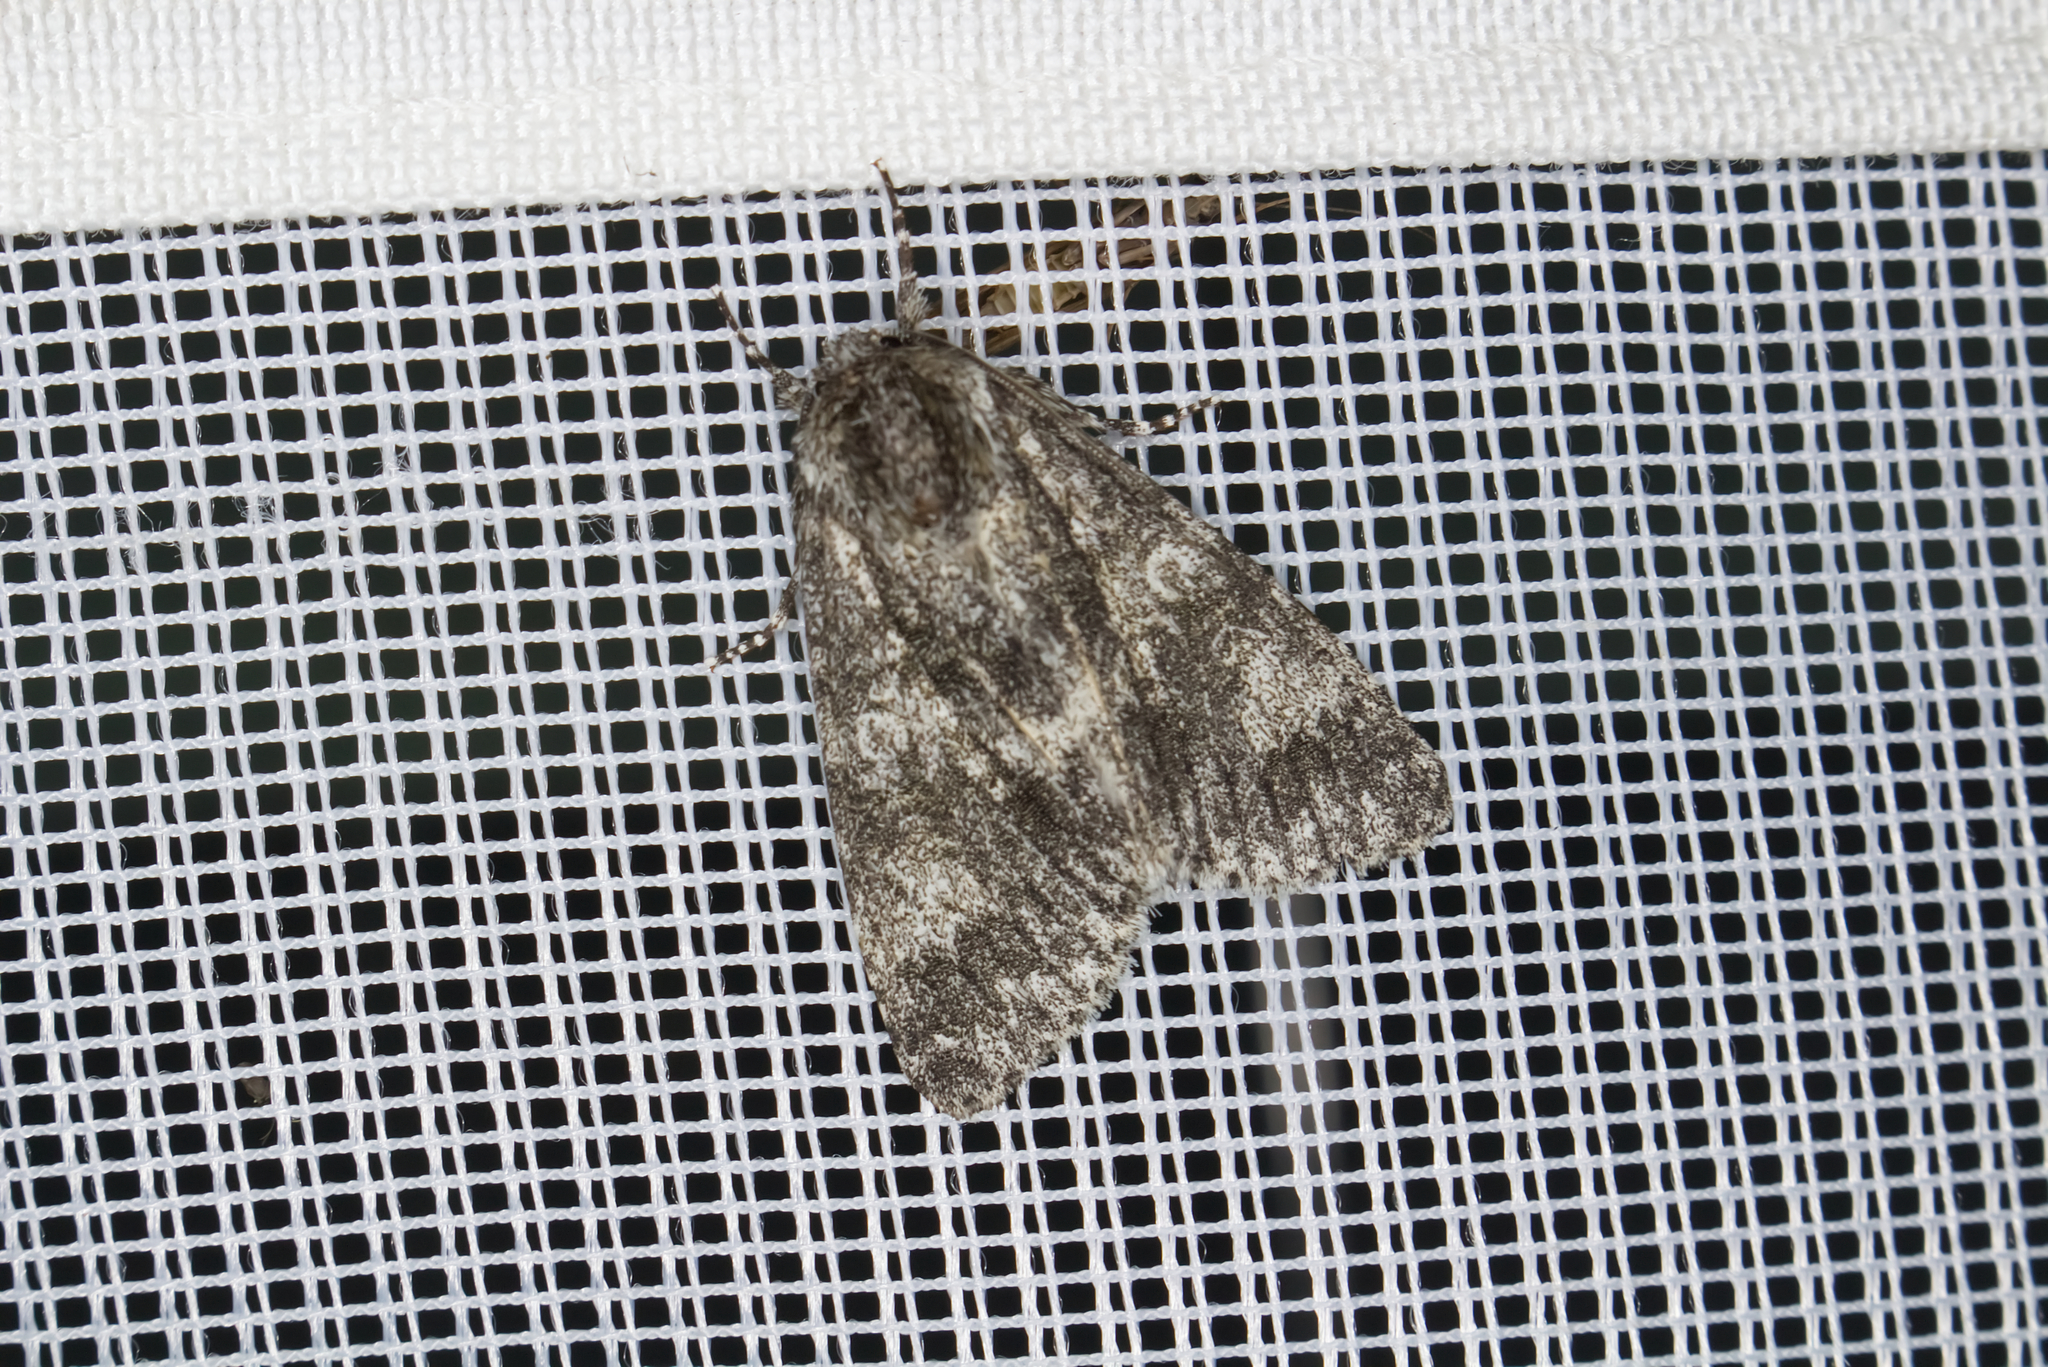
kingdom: Animalia
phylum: Arthropoda
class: Insecta
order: Lepidoptera
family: Noctuidae
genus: Acronicta
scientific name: Acronicta megacephala
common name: Poplar grey
